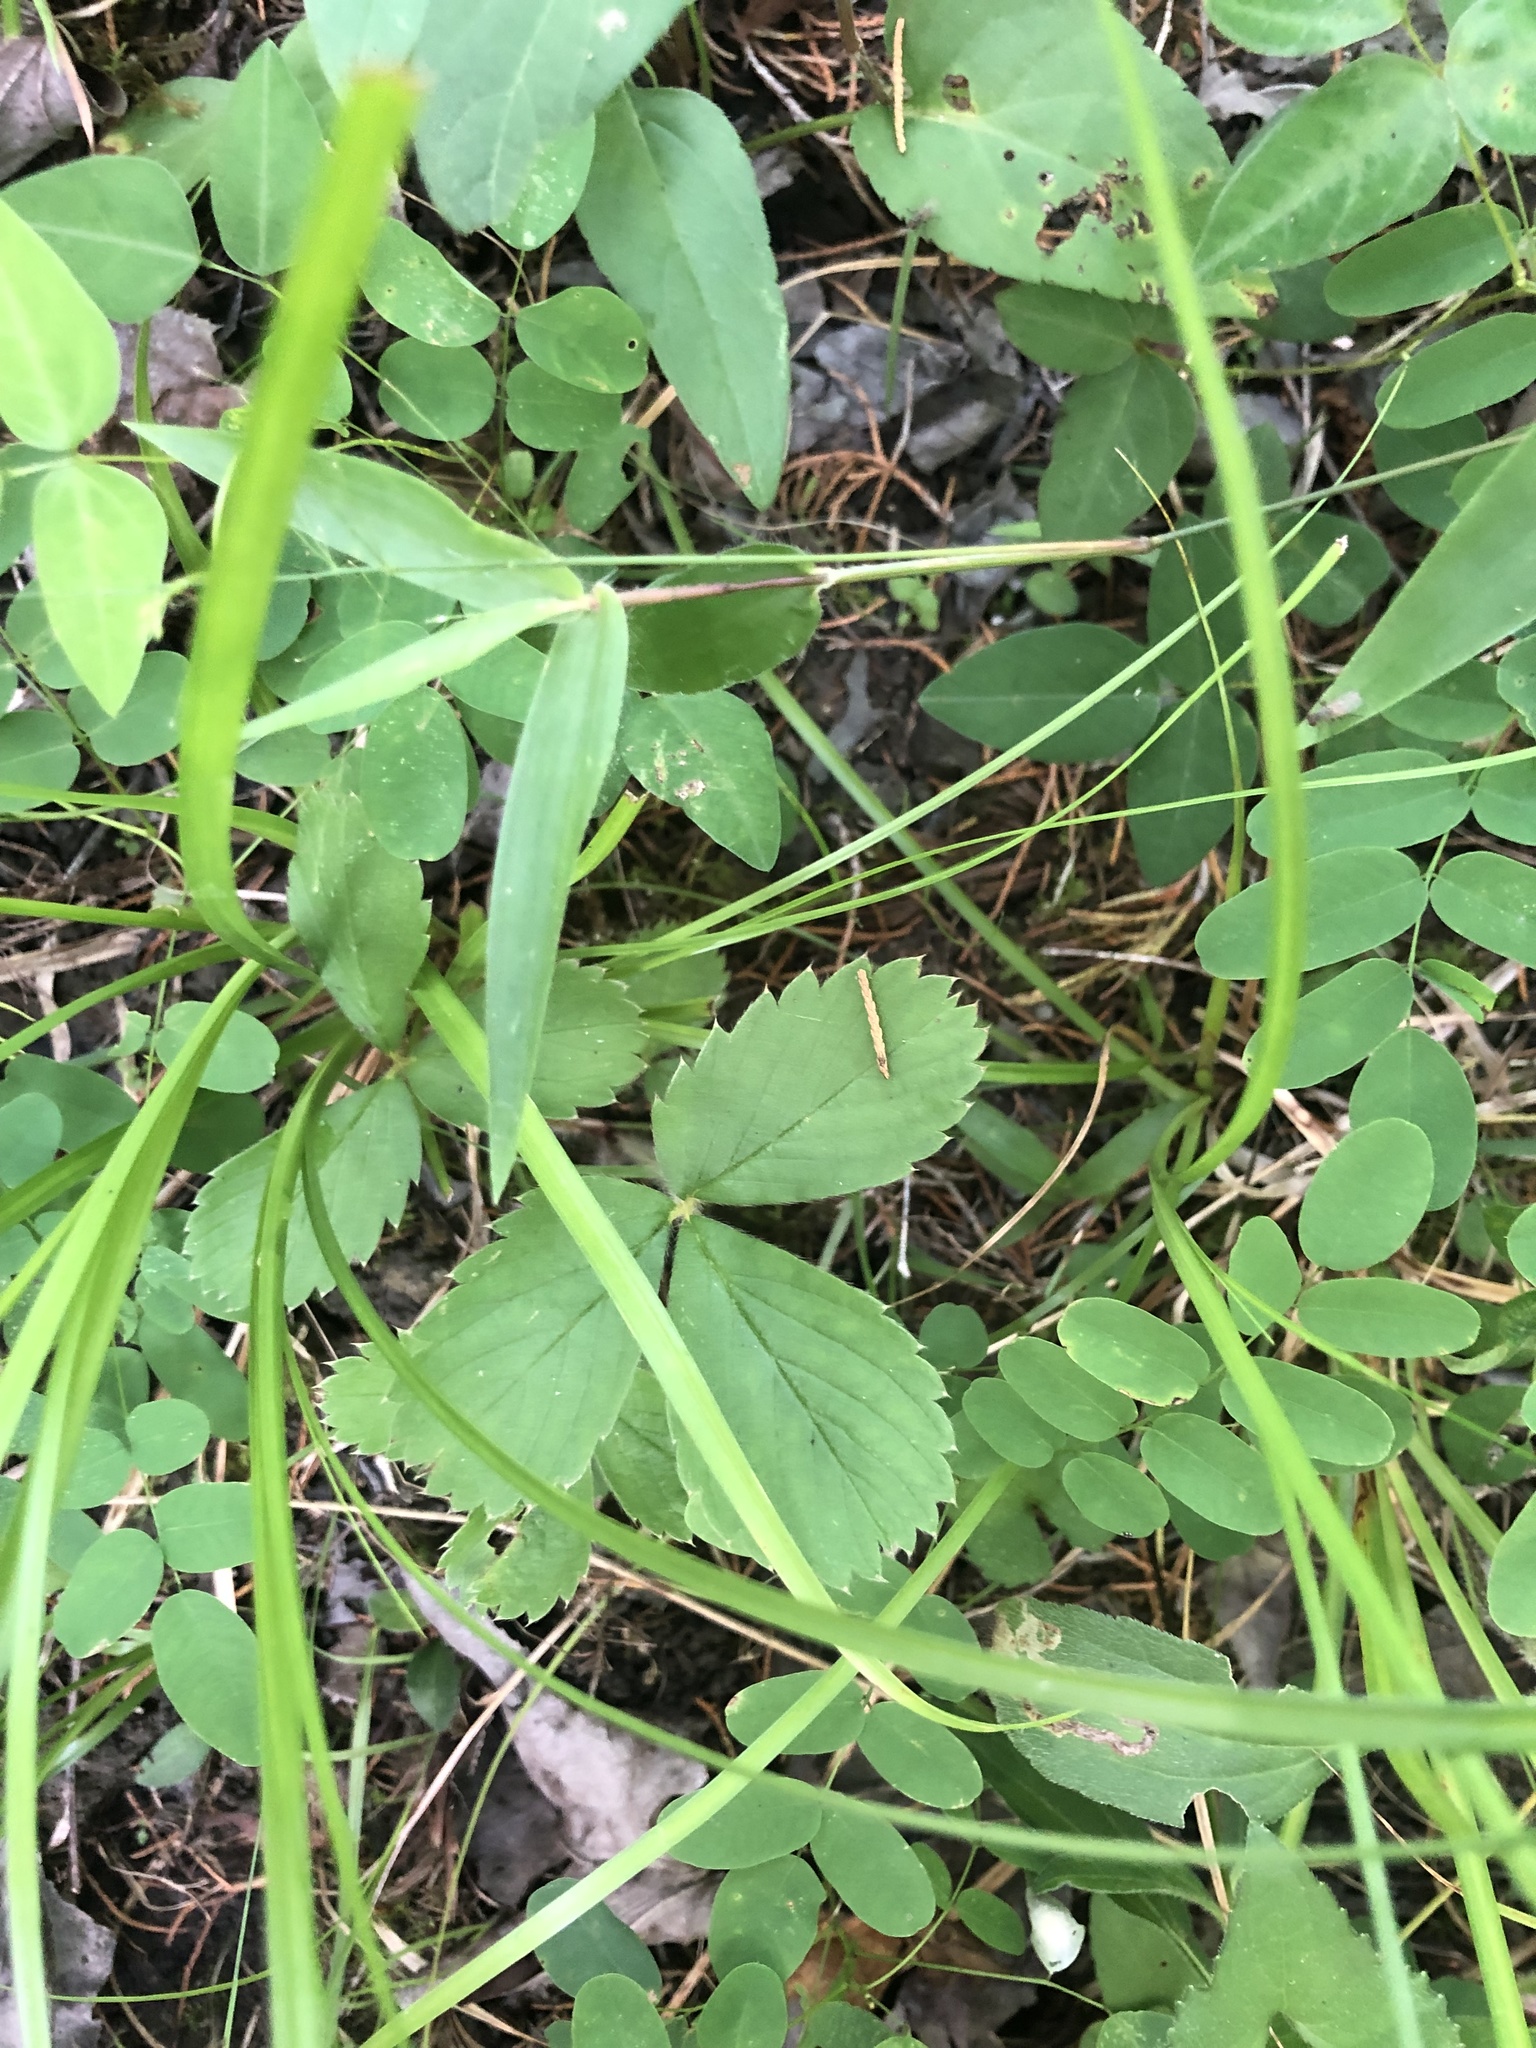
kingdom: Plantae
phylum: Tracheophyta
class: Magnoliopsida
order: Rosales
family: Rosaceae
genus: Fragaria
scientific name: Fragaria virginiana
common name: Thickleaved wild strawberry
